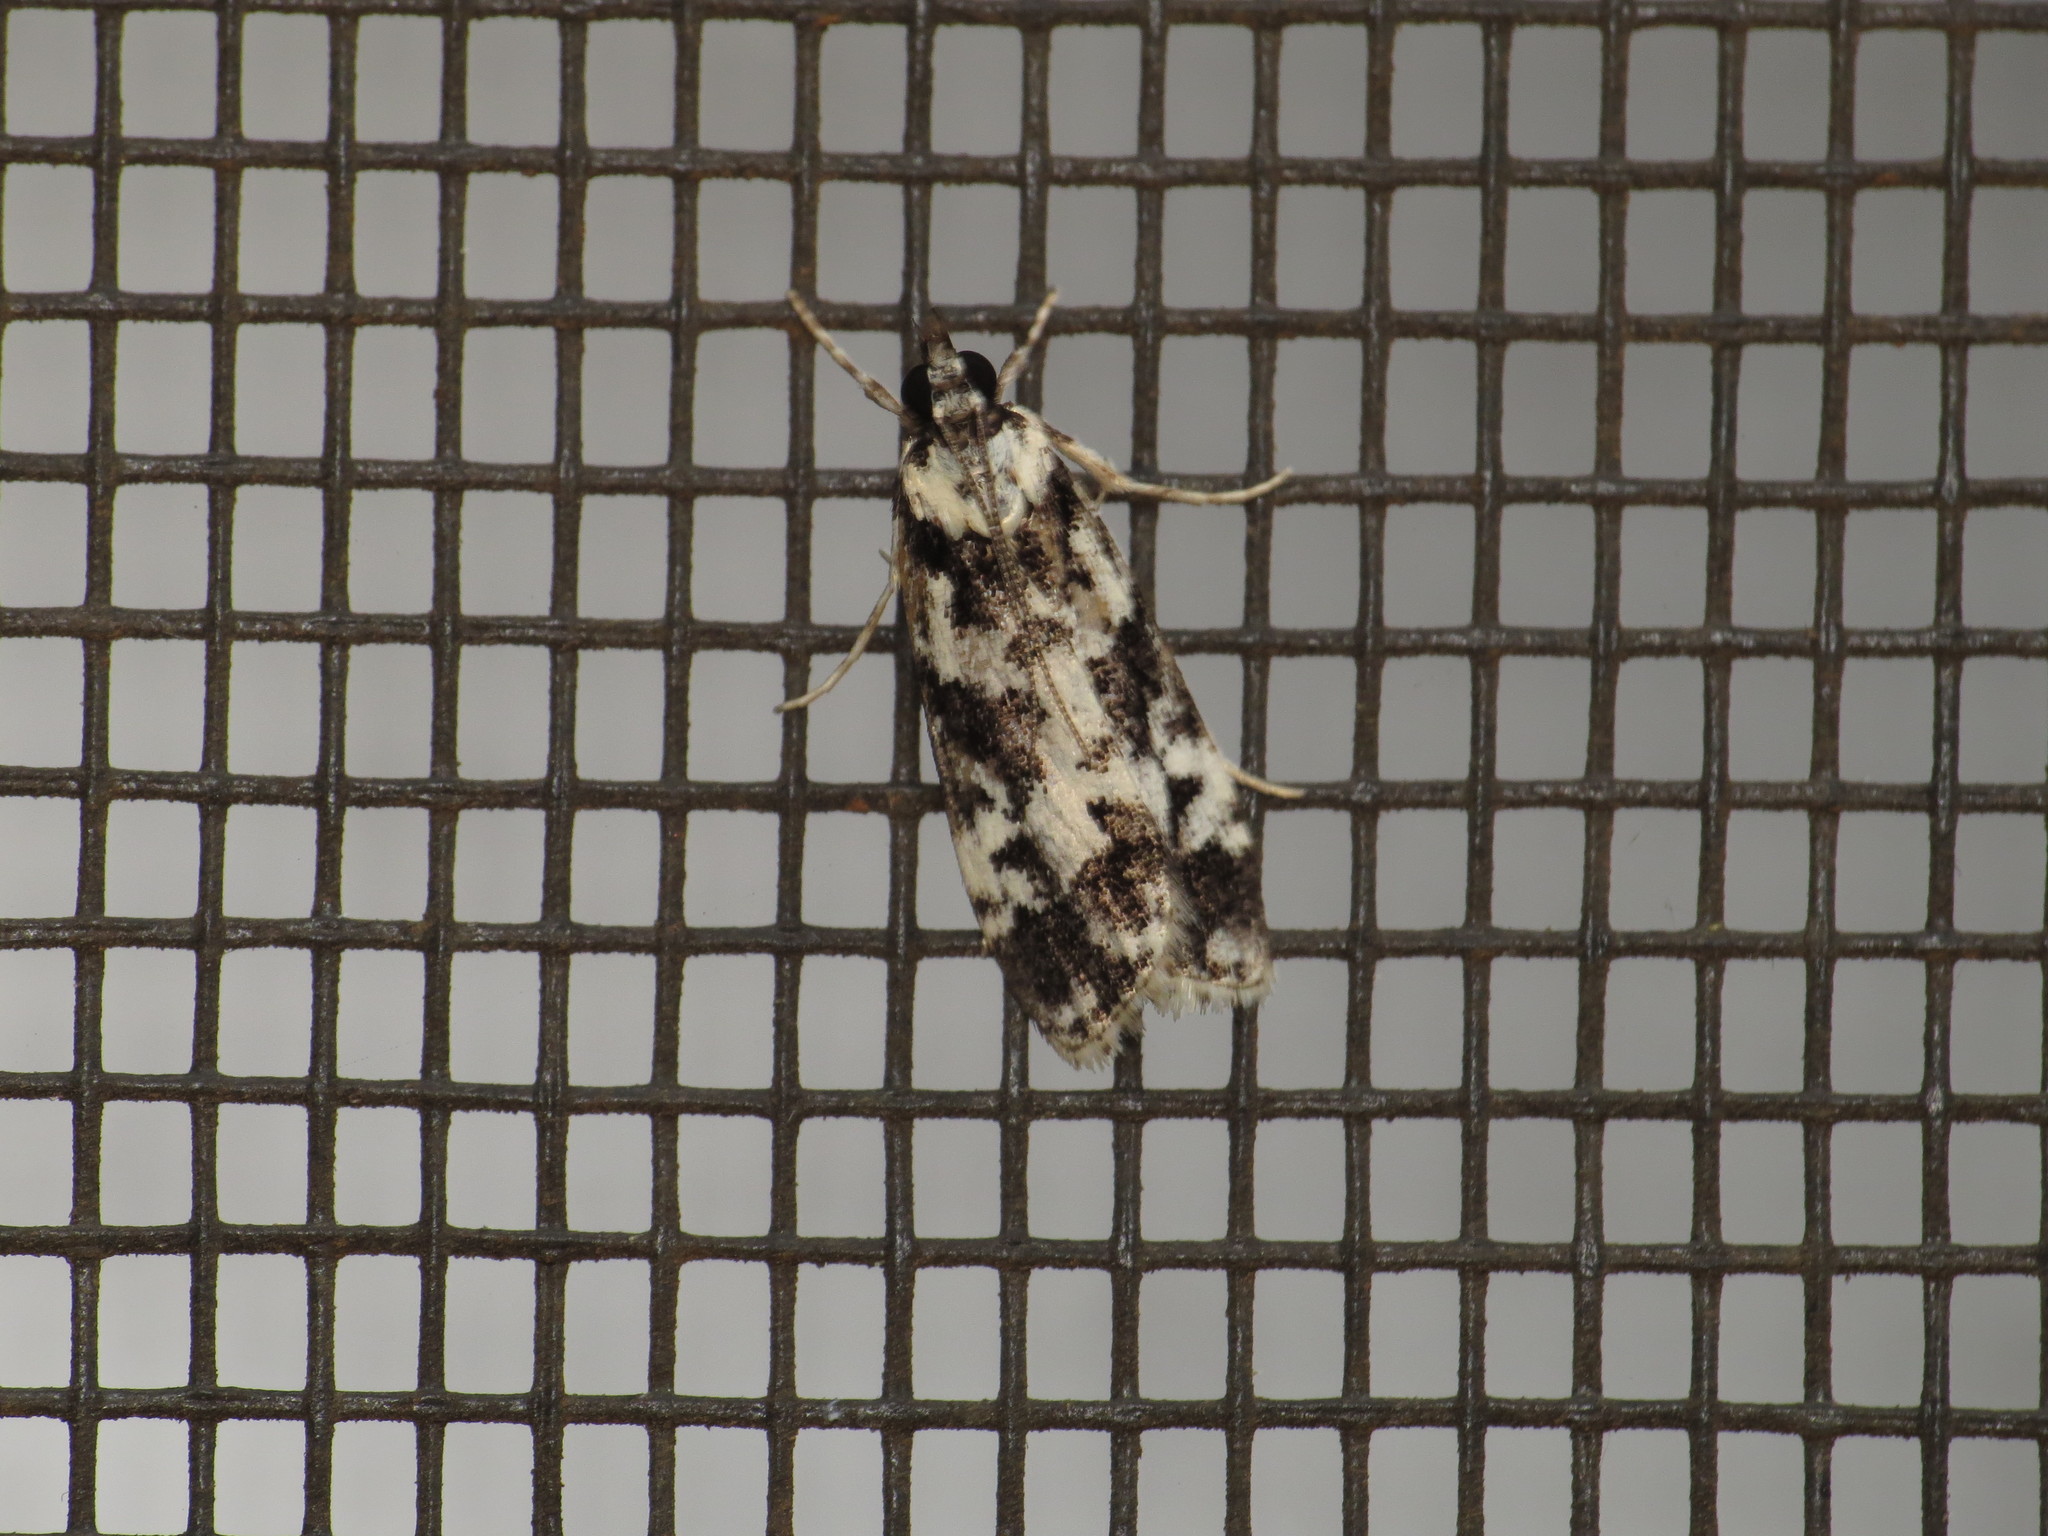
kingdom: Animalia
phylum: Arthropoda
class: Insecta
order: Lepidoptera
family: Crambidae
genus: Scoparia
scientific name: Scoparia exhibitalis
